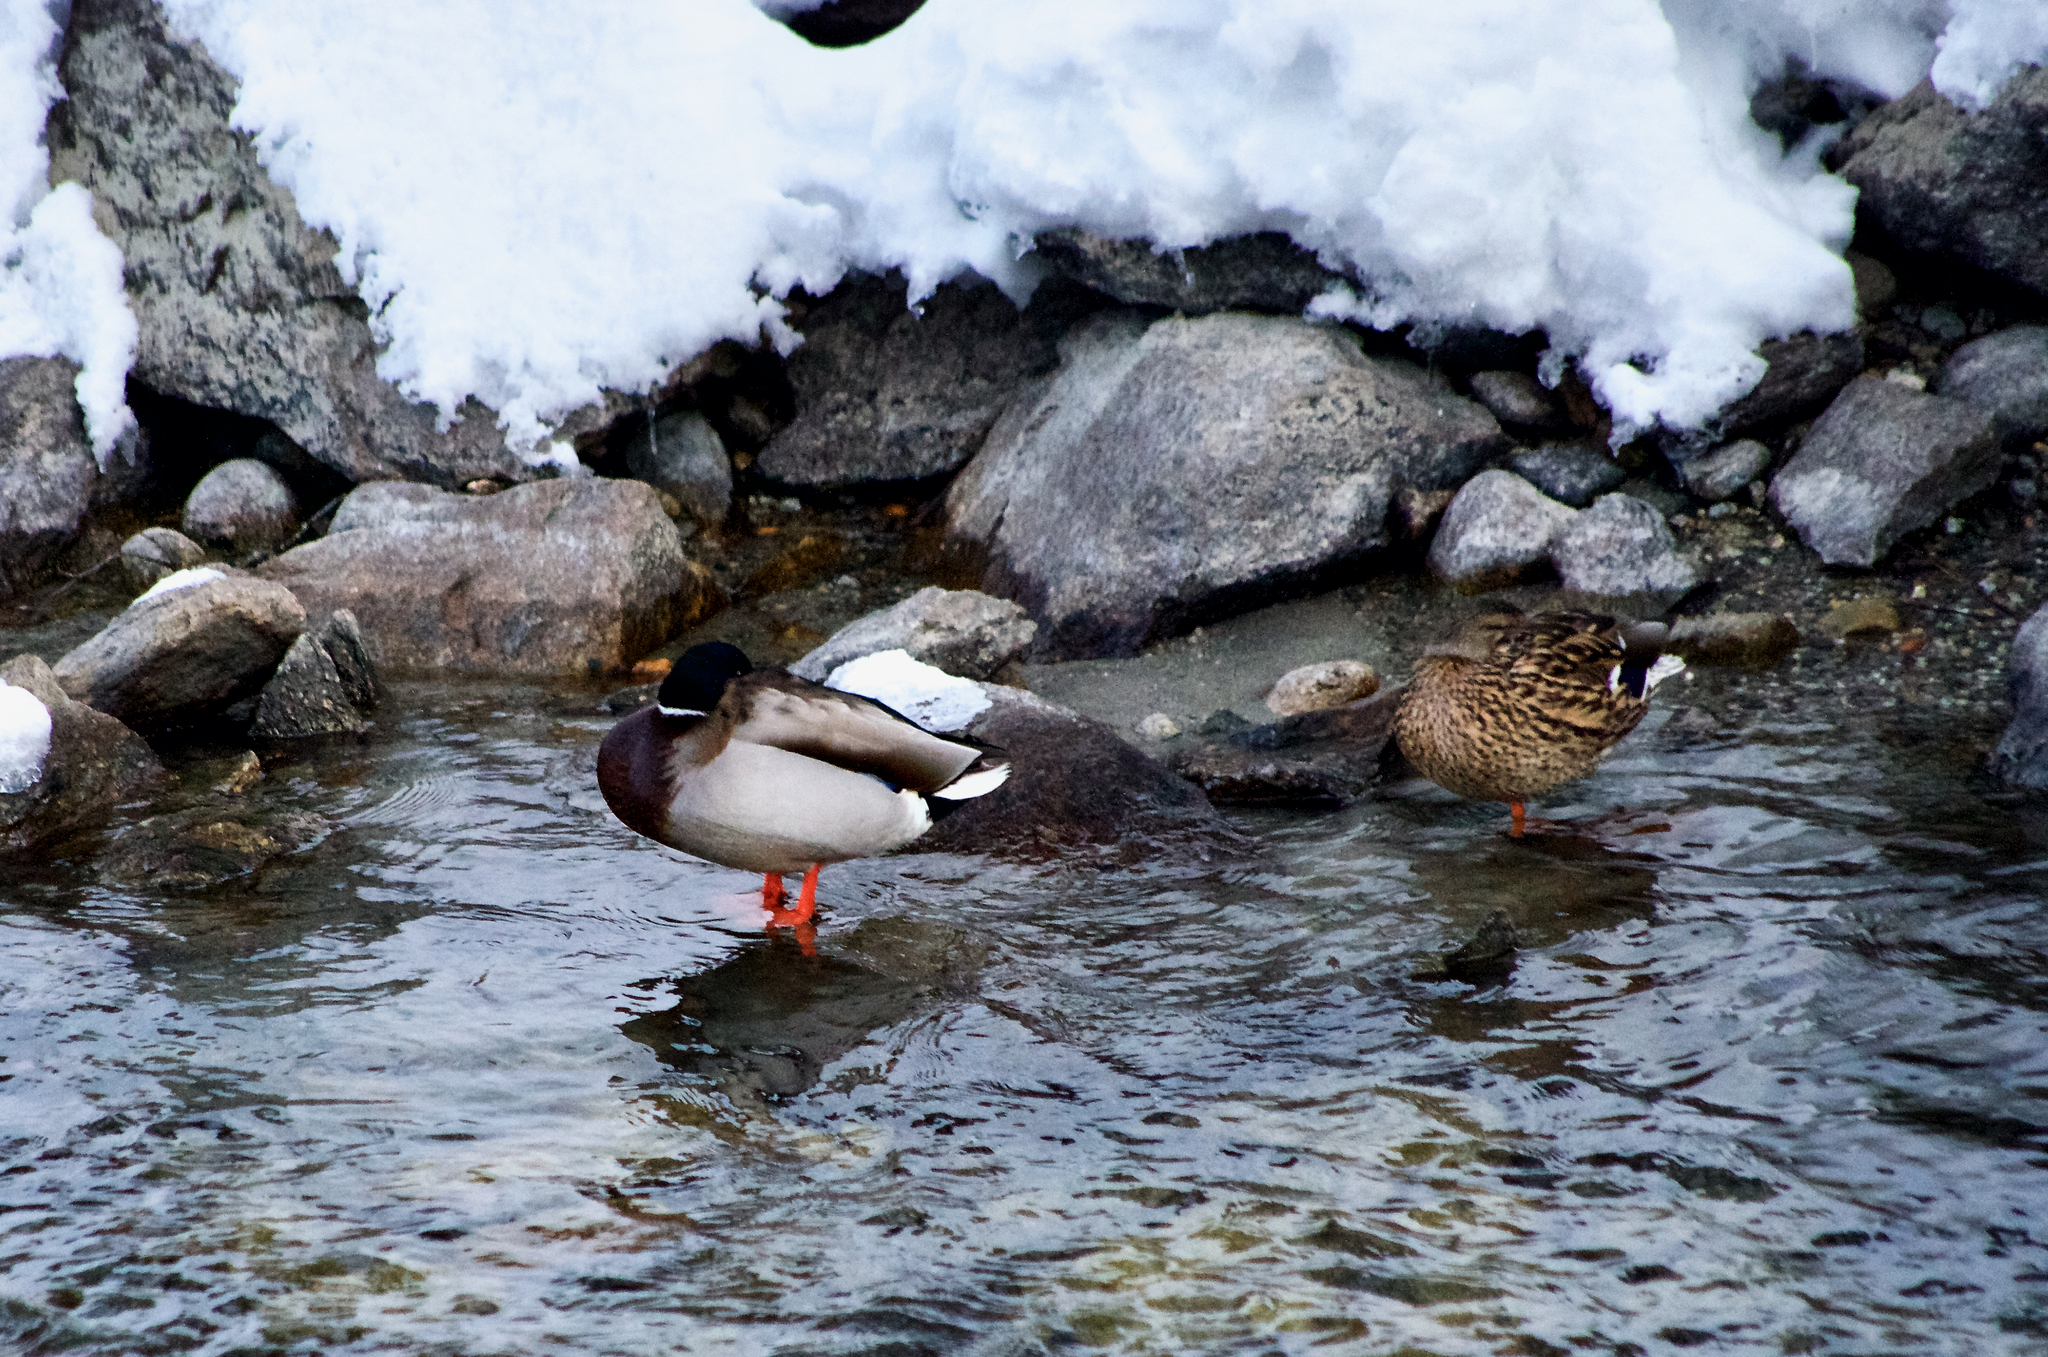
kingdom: Animalia
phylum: Chordata
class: Aves
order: Anseriformes
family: Anatidae
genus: Anas
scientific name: Anas platyrhynchos
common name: Mallard
